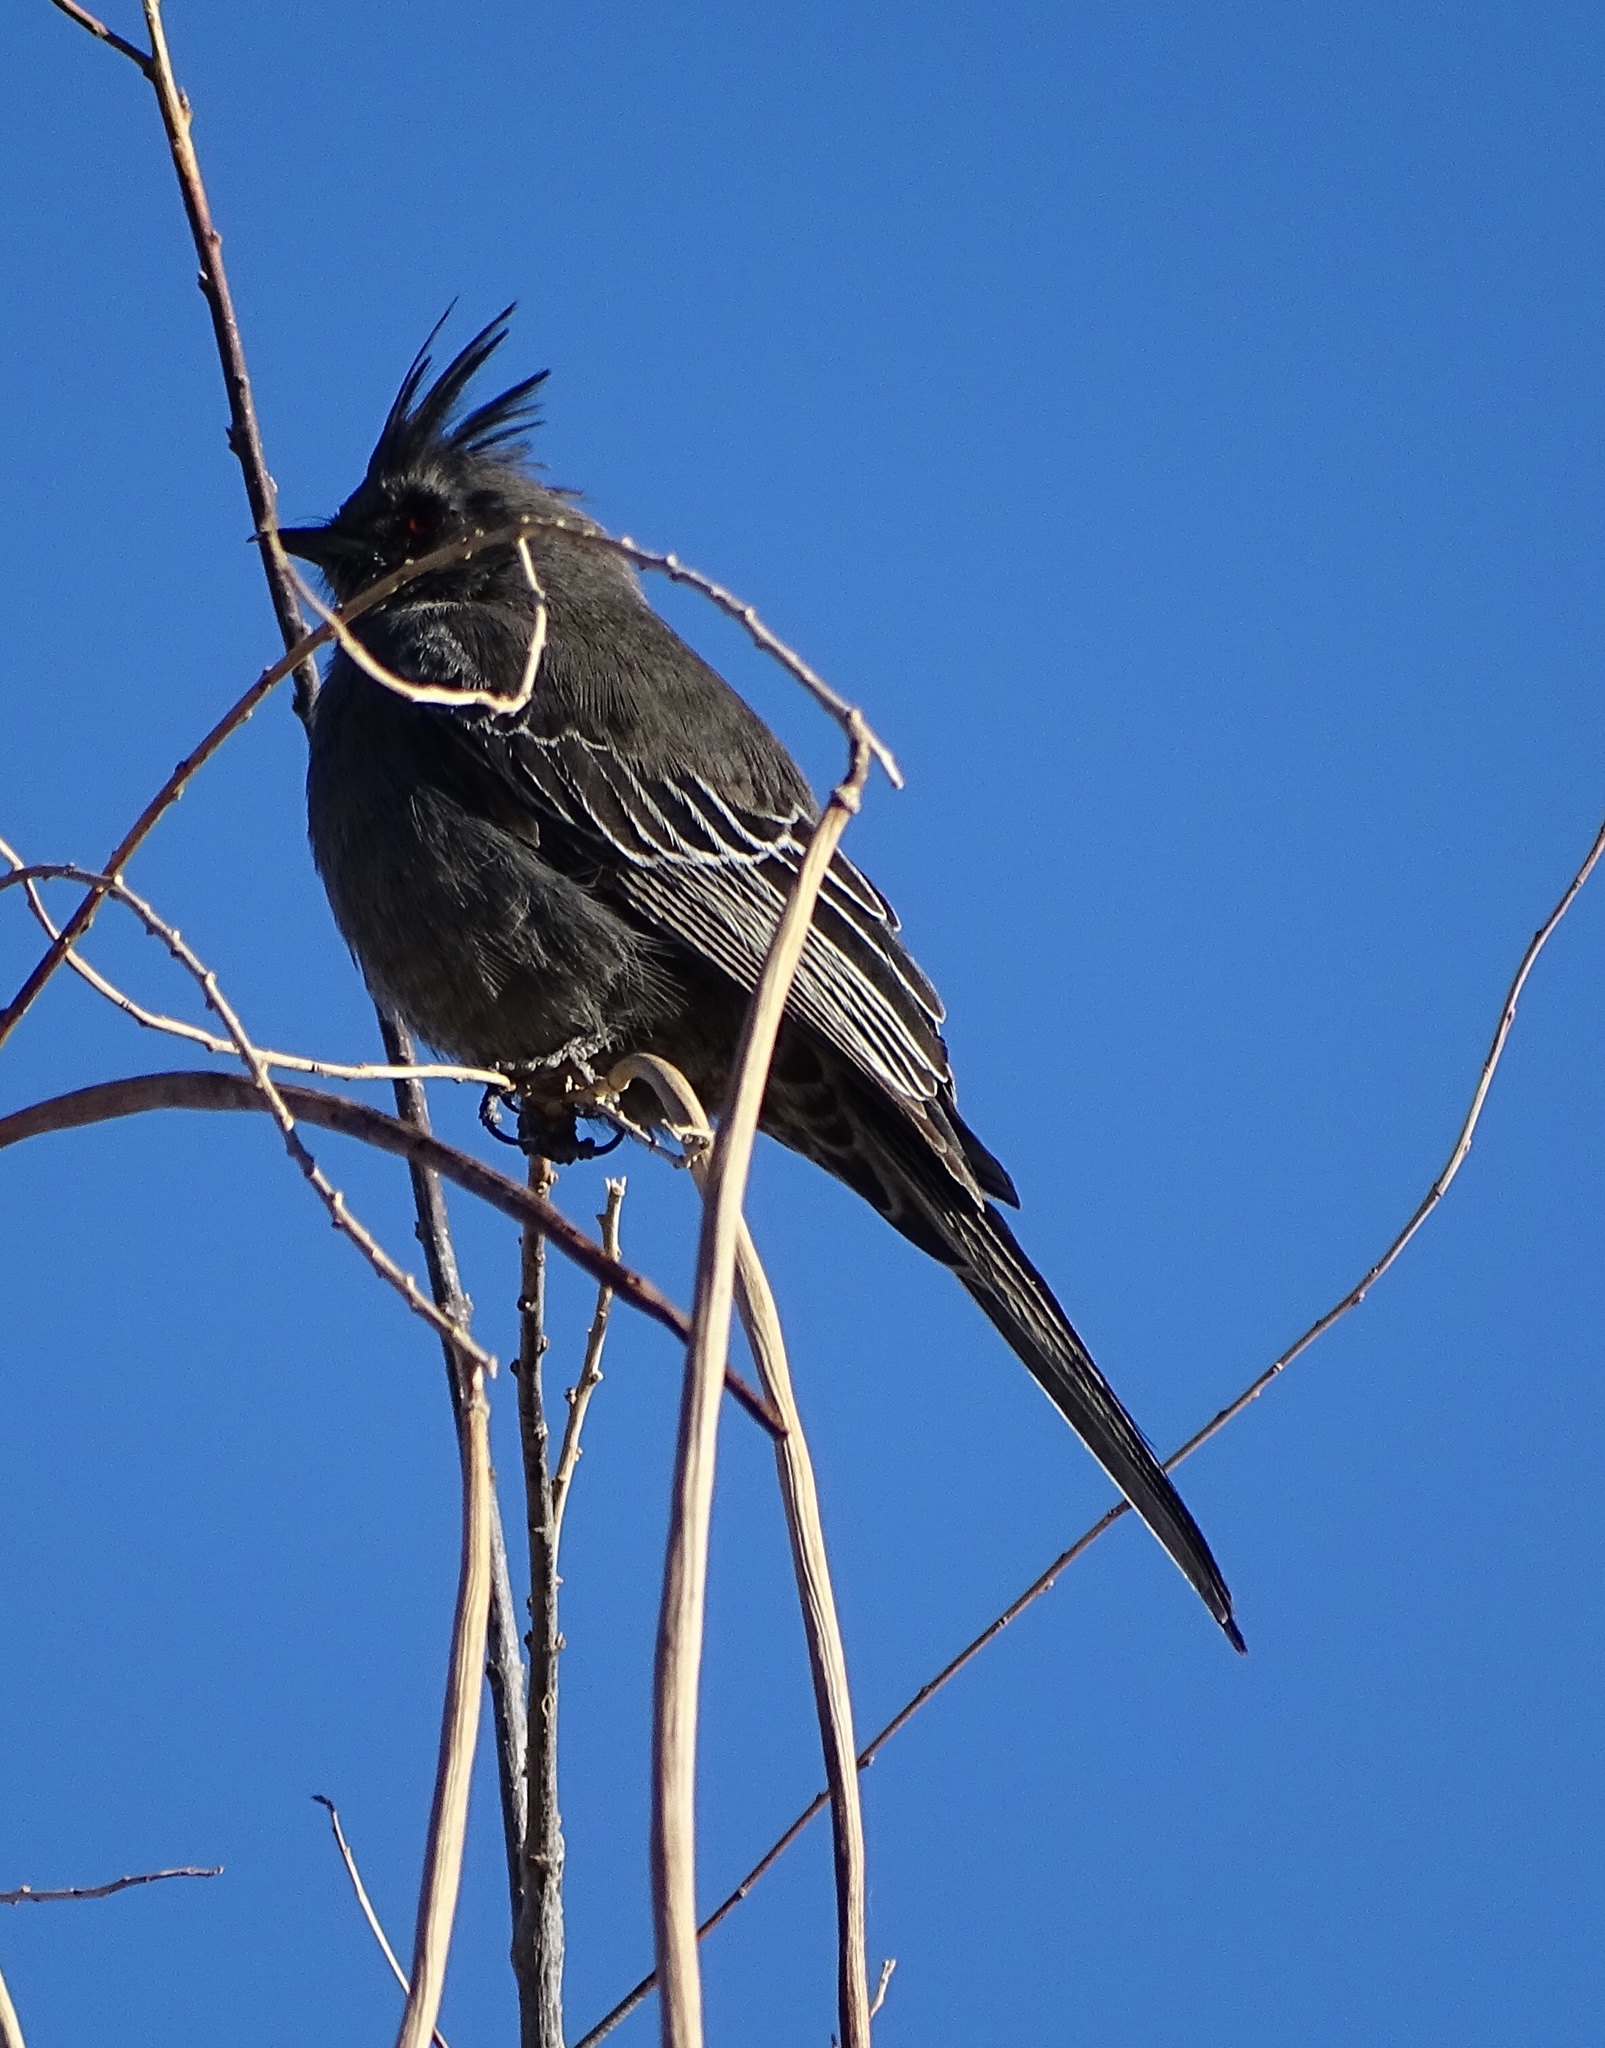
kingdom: Animalia
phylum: Chordata
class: Aves
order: Passeriformes
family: Ptilogonatidae
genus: Phainopepla
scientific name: Phainopepla nitens
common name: Phainopepla
